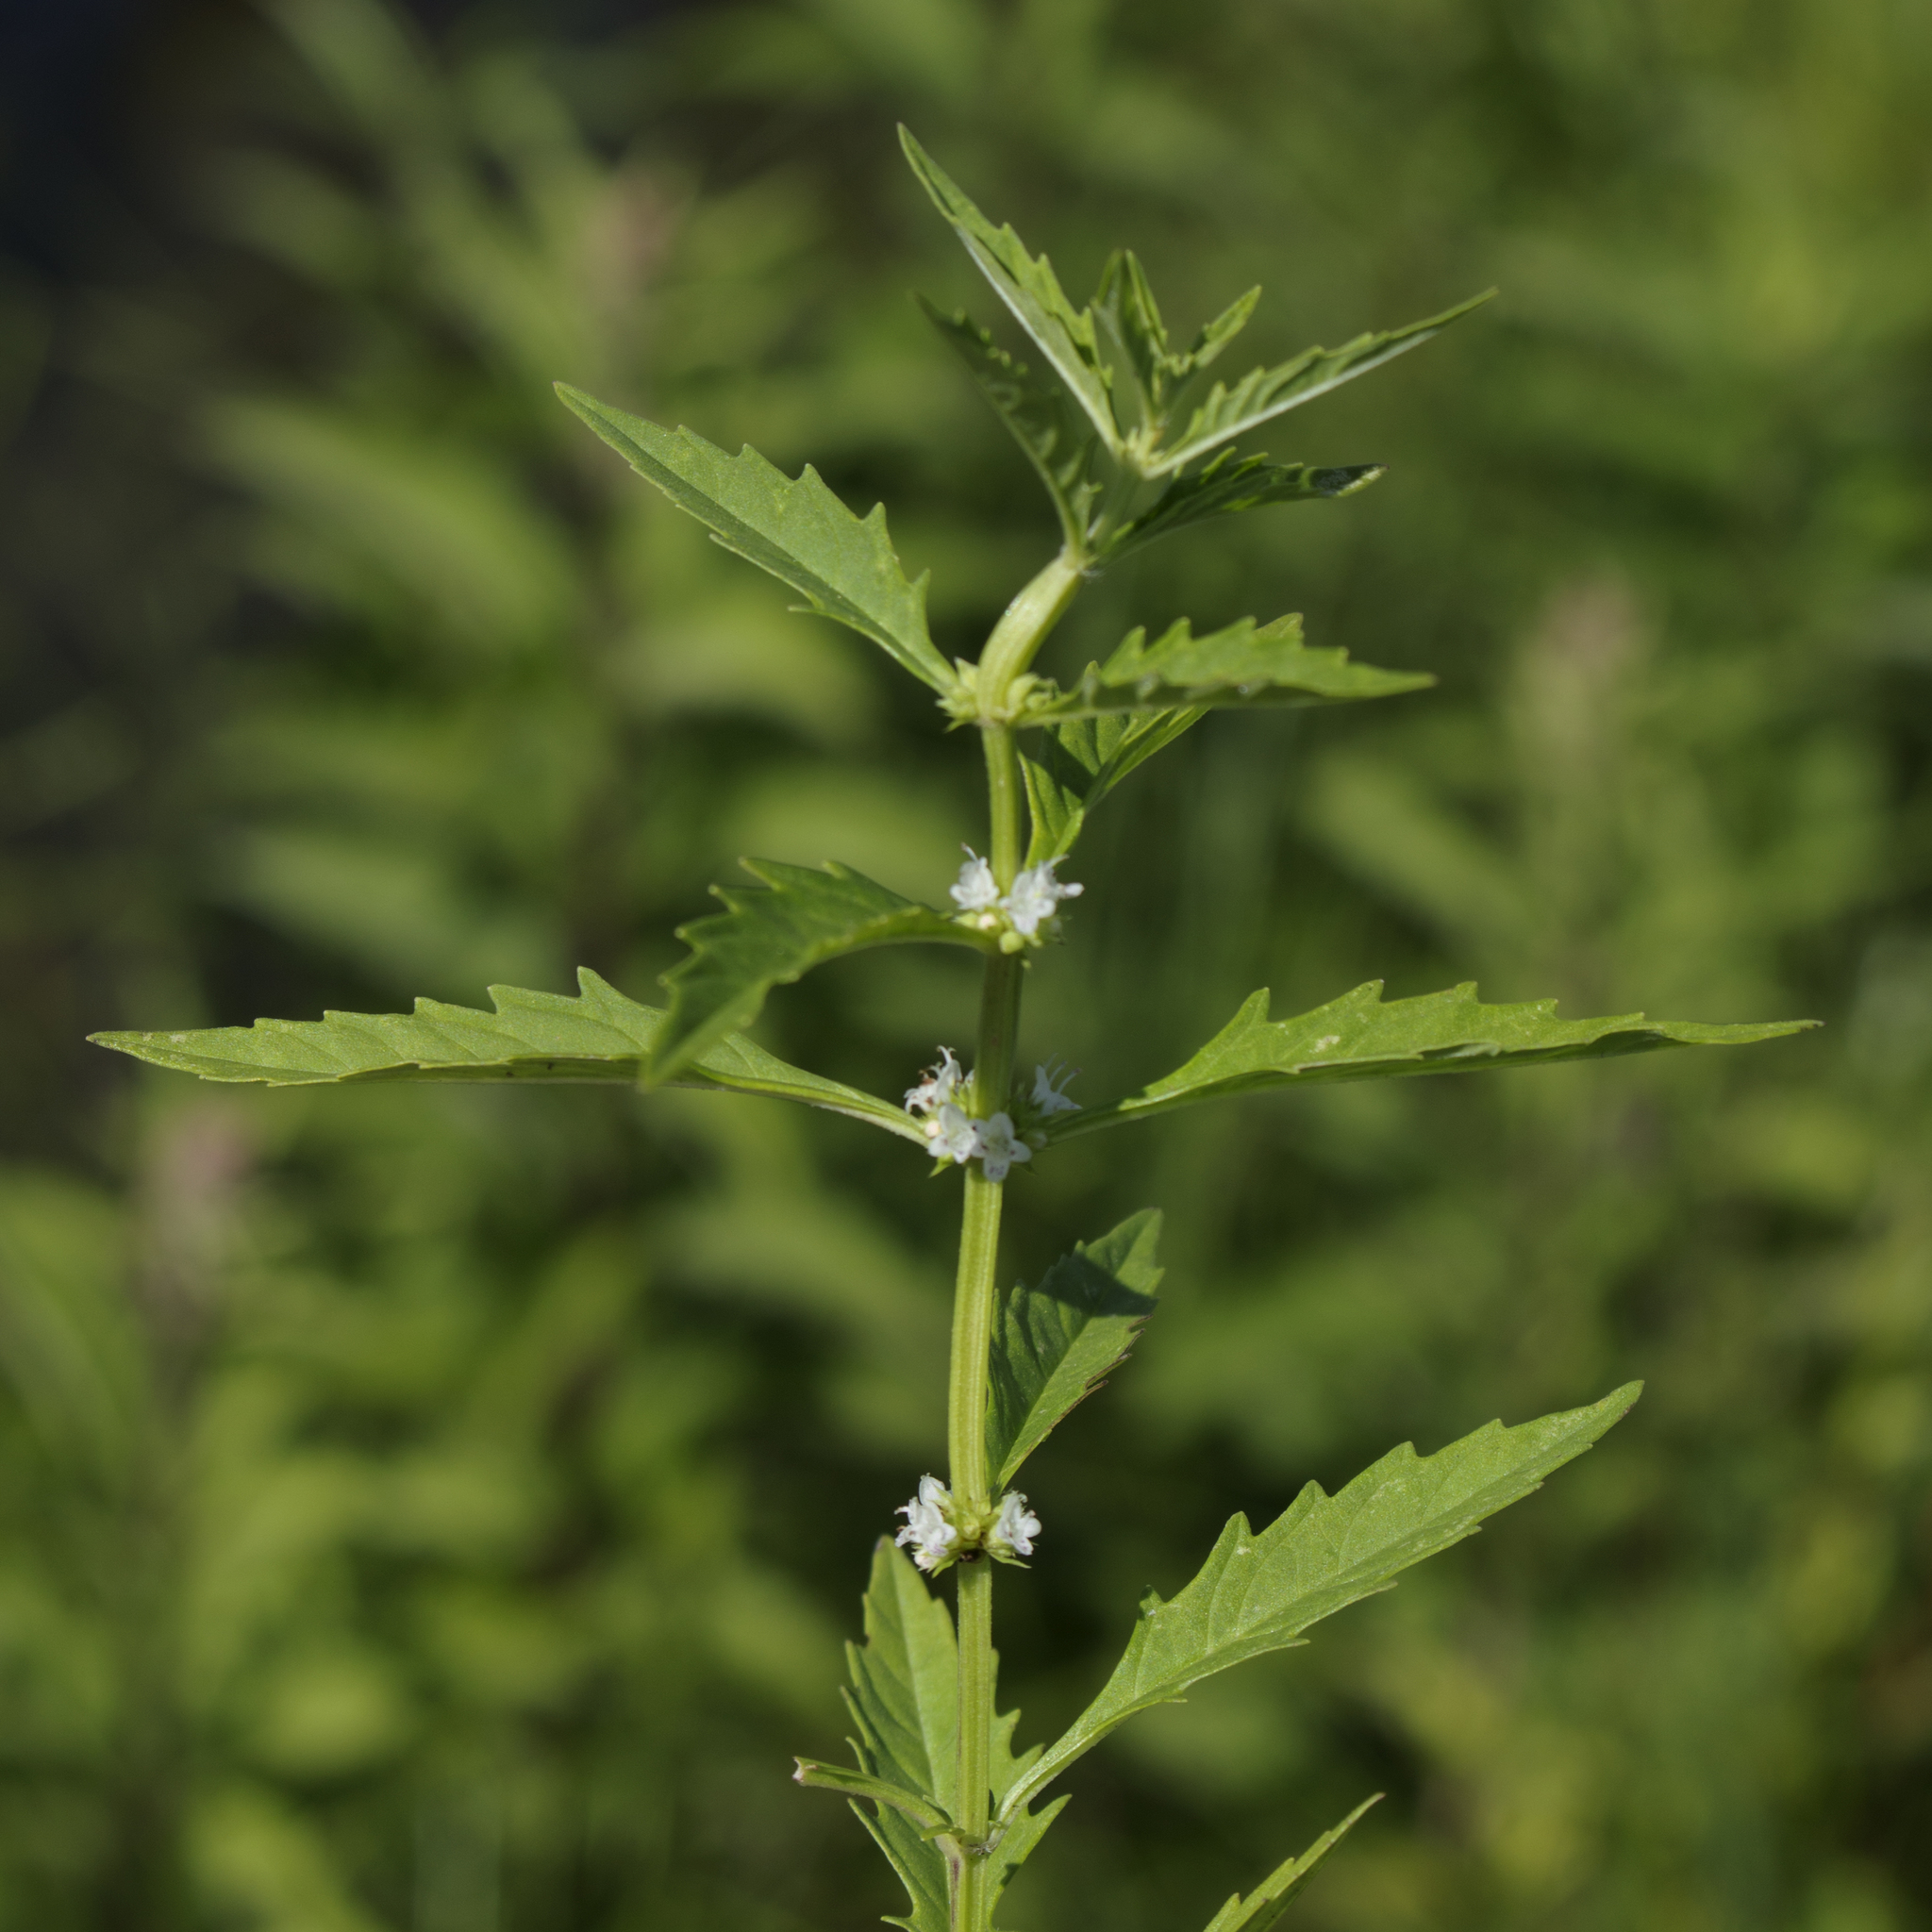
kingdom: Plantae
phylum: Tracheophyta
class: Magnoliopsida
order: Lamiales
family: Lamiaceae
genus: Lycopus
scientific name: Lycopus americanus
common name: American bugleweed
